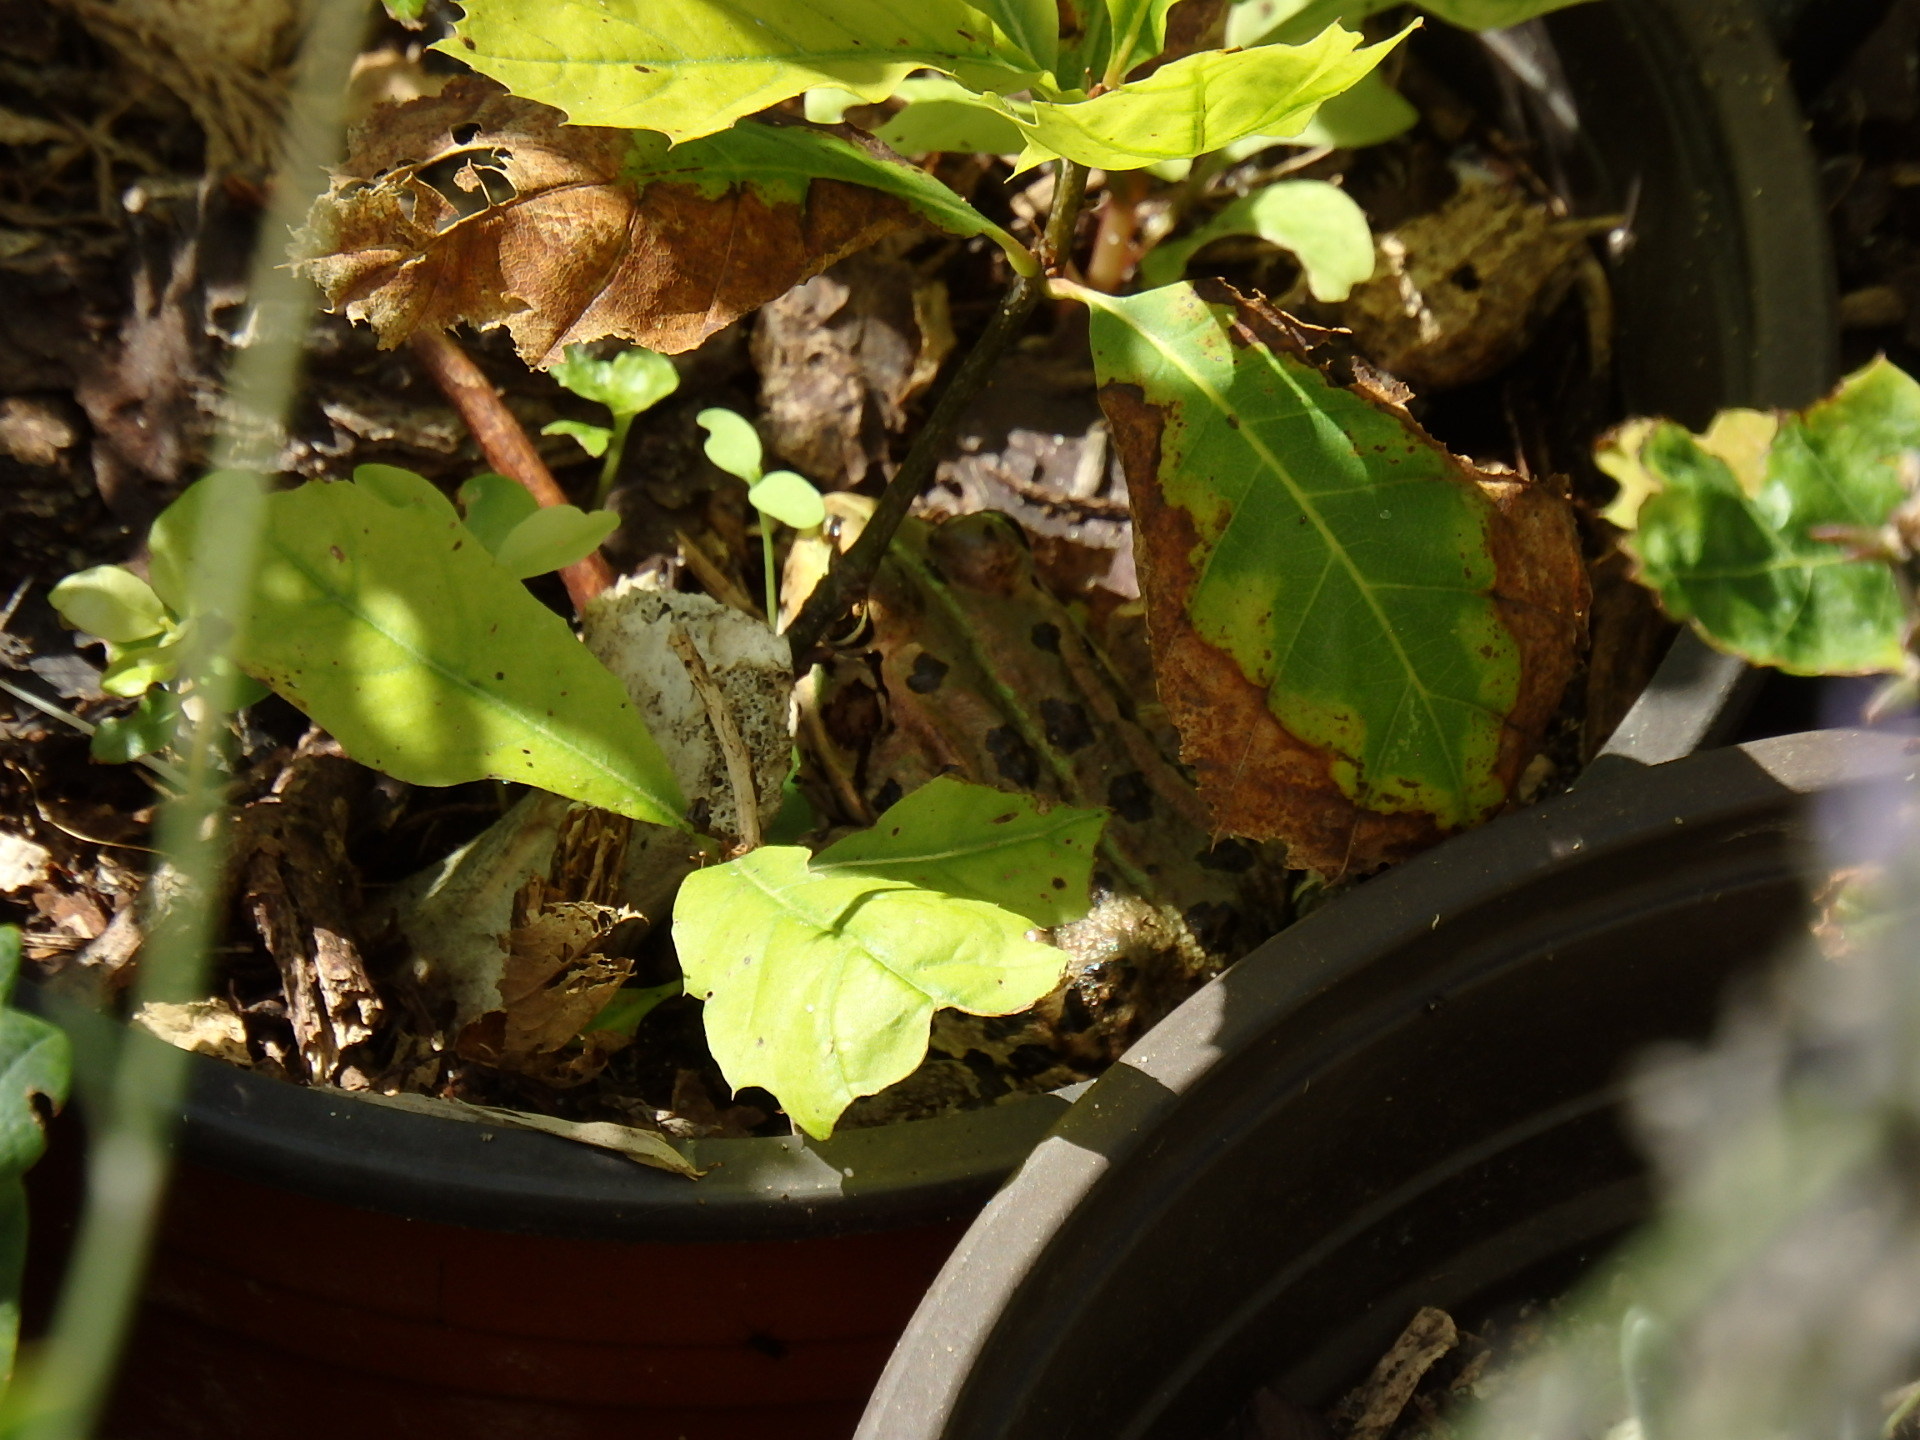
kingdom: Animalia
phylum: Chordata
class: Amphibia
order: Anura
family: Ranidae
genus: Pelophylax
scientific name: Pelophylax perezi
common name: Perez's frog
